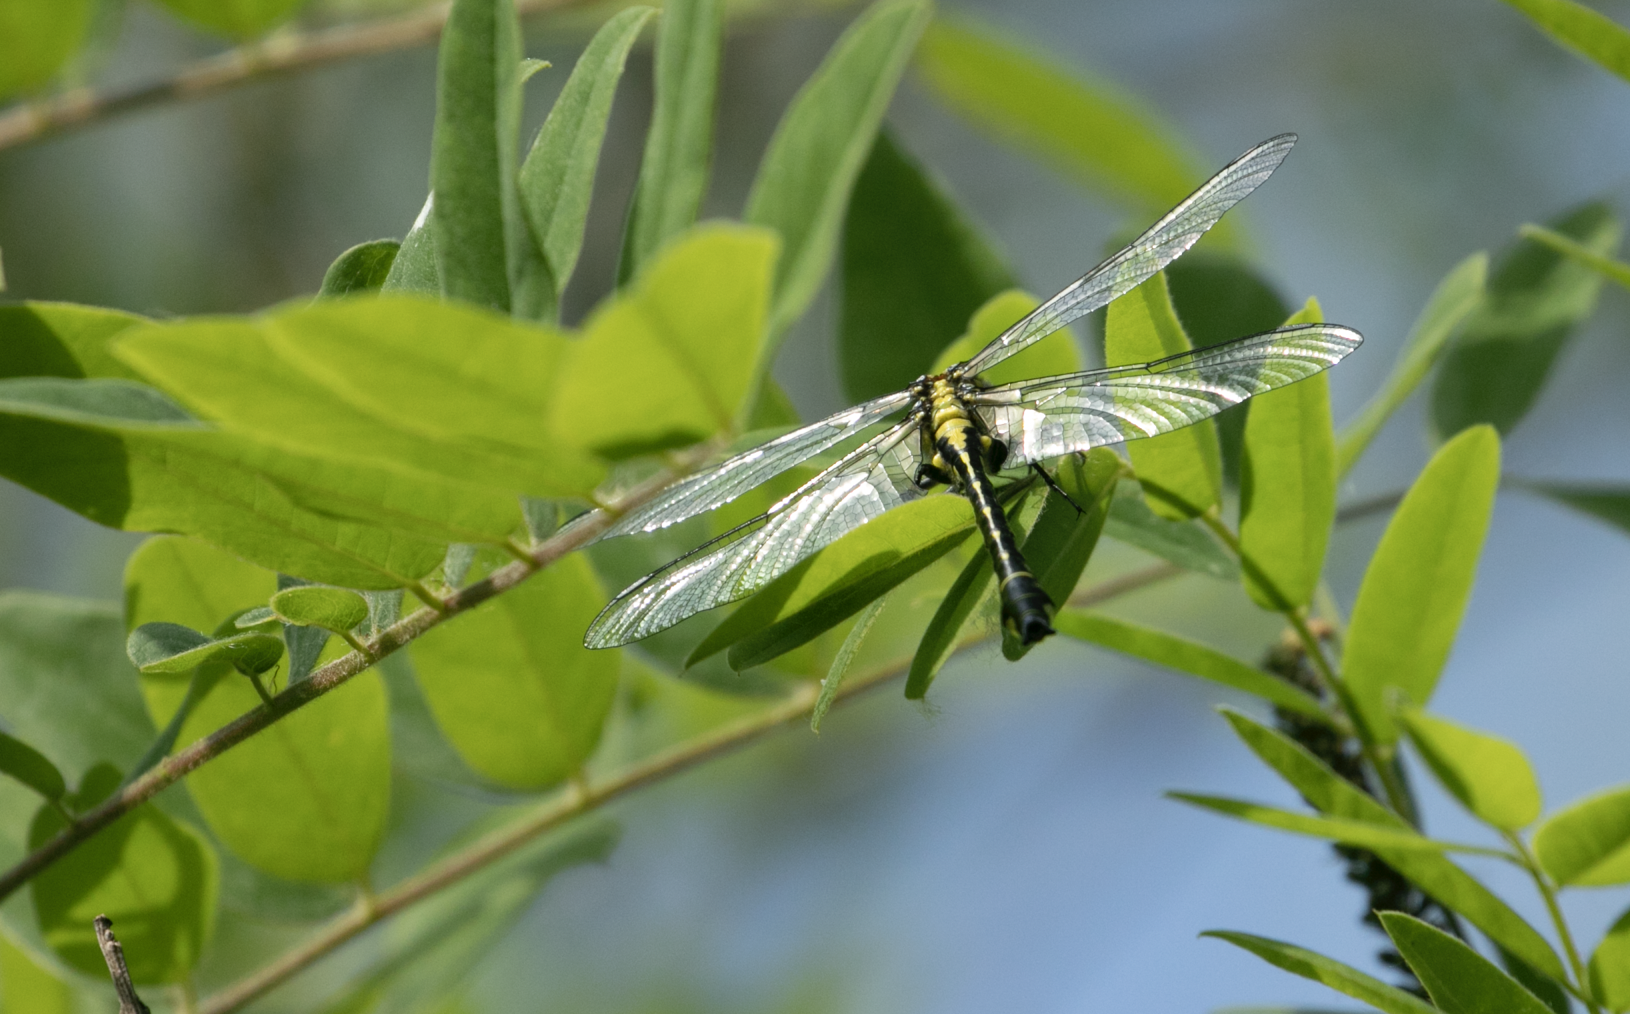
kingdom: Animalia
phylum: Arthropoda
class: Insecta
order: Odonata
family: Gomphidae
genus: Gomphus
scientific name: Gomphus vulgatissimus
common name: Club-tailed dragonfly
